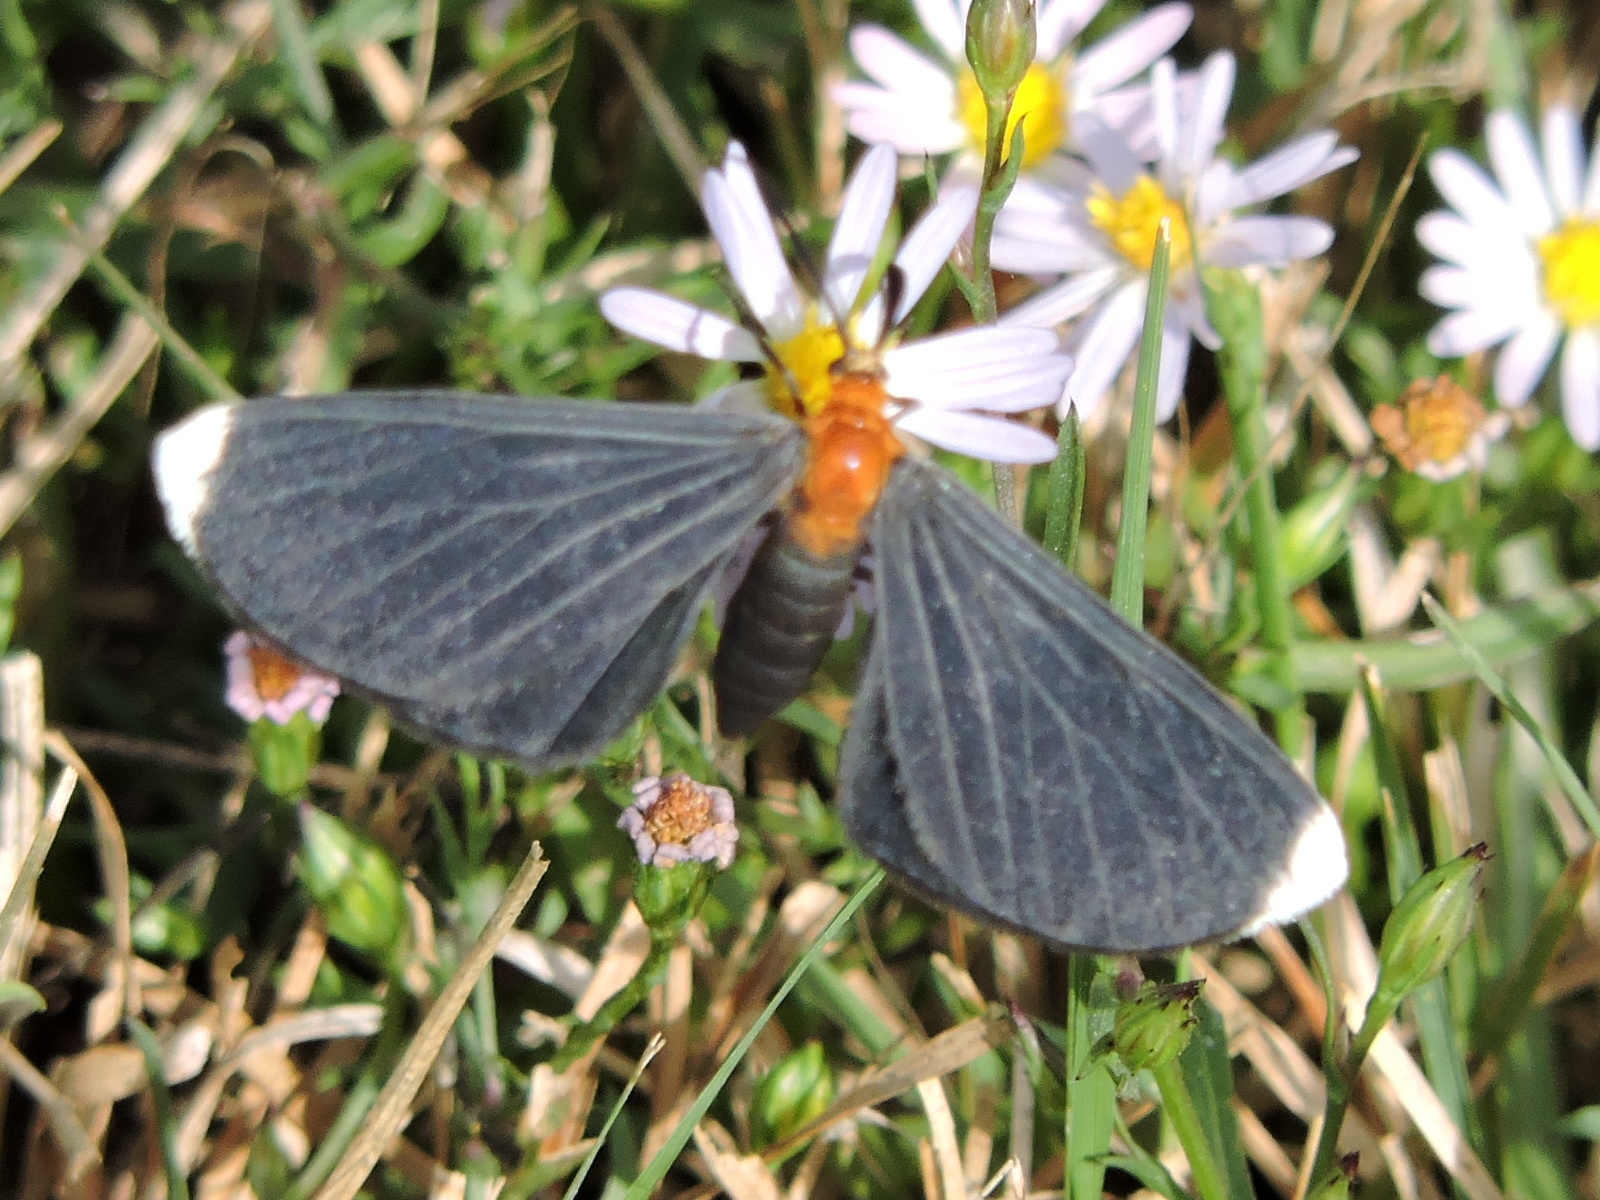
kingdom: Animalia
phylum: Arthropoda
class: Insecta
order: Lepidoptera
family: Geometridae
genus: Melanchroia
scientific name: Melanchroia chephise
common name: White-tipped black
